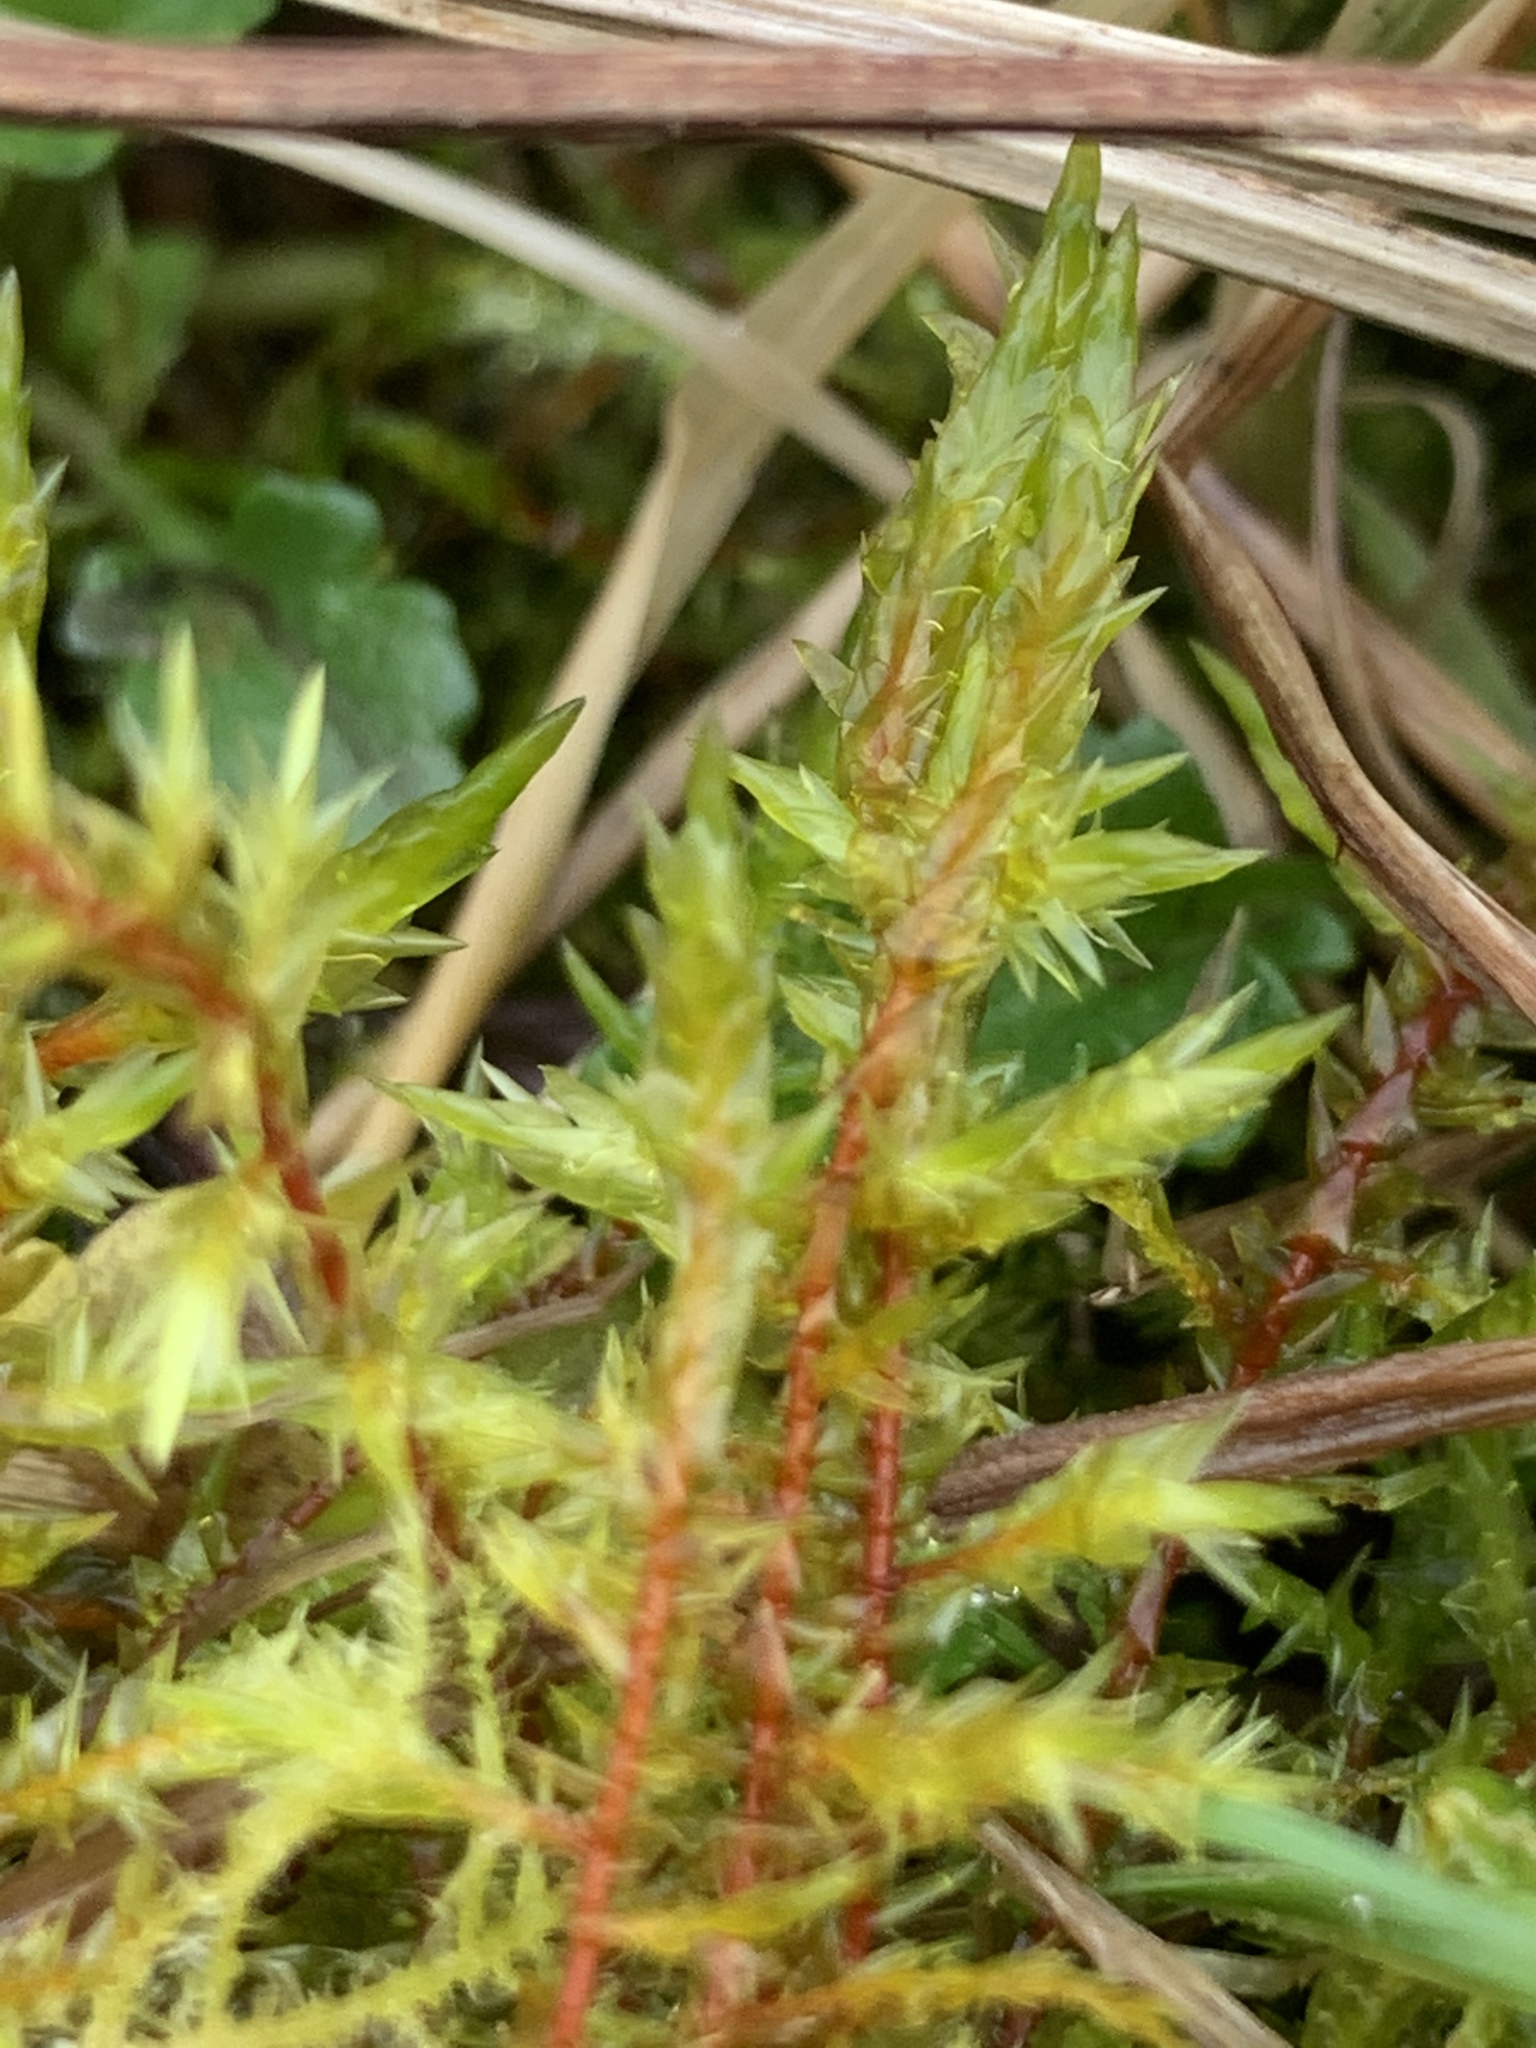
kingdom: Plantae
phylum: Bryophyta
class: Bryopsida
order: Hypnales
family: Pylaisiaceae
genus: Calliergonella
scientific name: Calliergonella cuspidata
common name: Common large wetland moss
